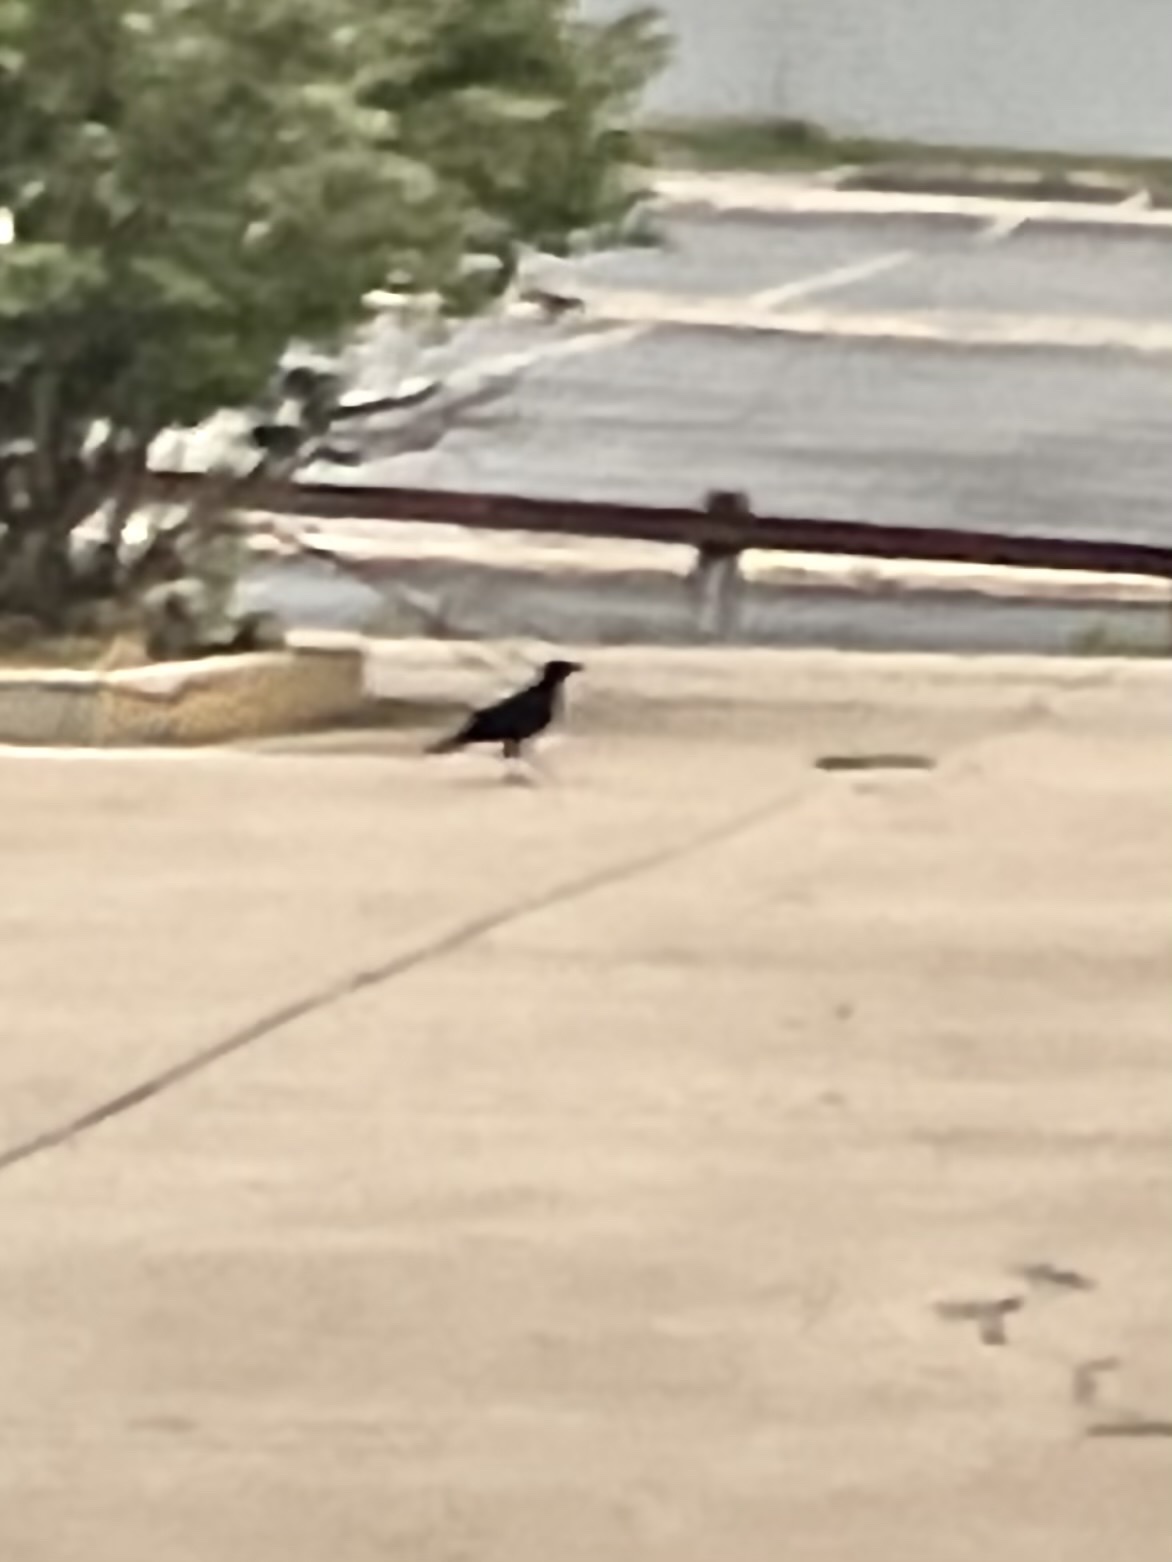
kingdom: Animalia
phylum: Chordata
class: Aves
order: Passeriformes
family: Corvidae
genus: Corvus
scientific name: Corvus brachyrhynchos
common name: American crow
